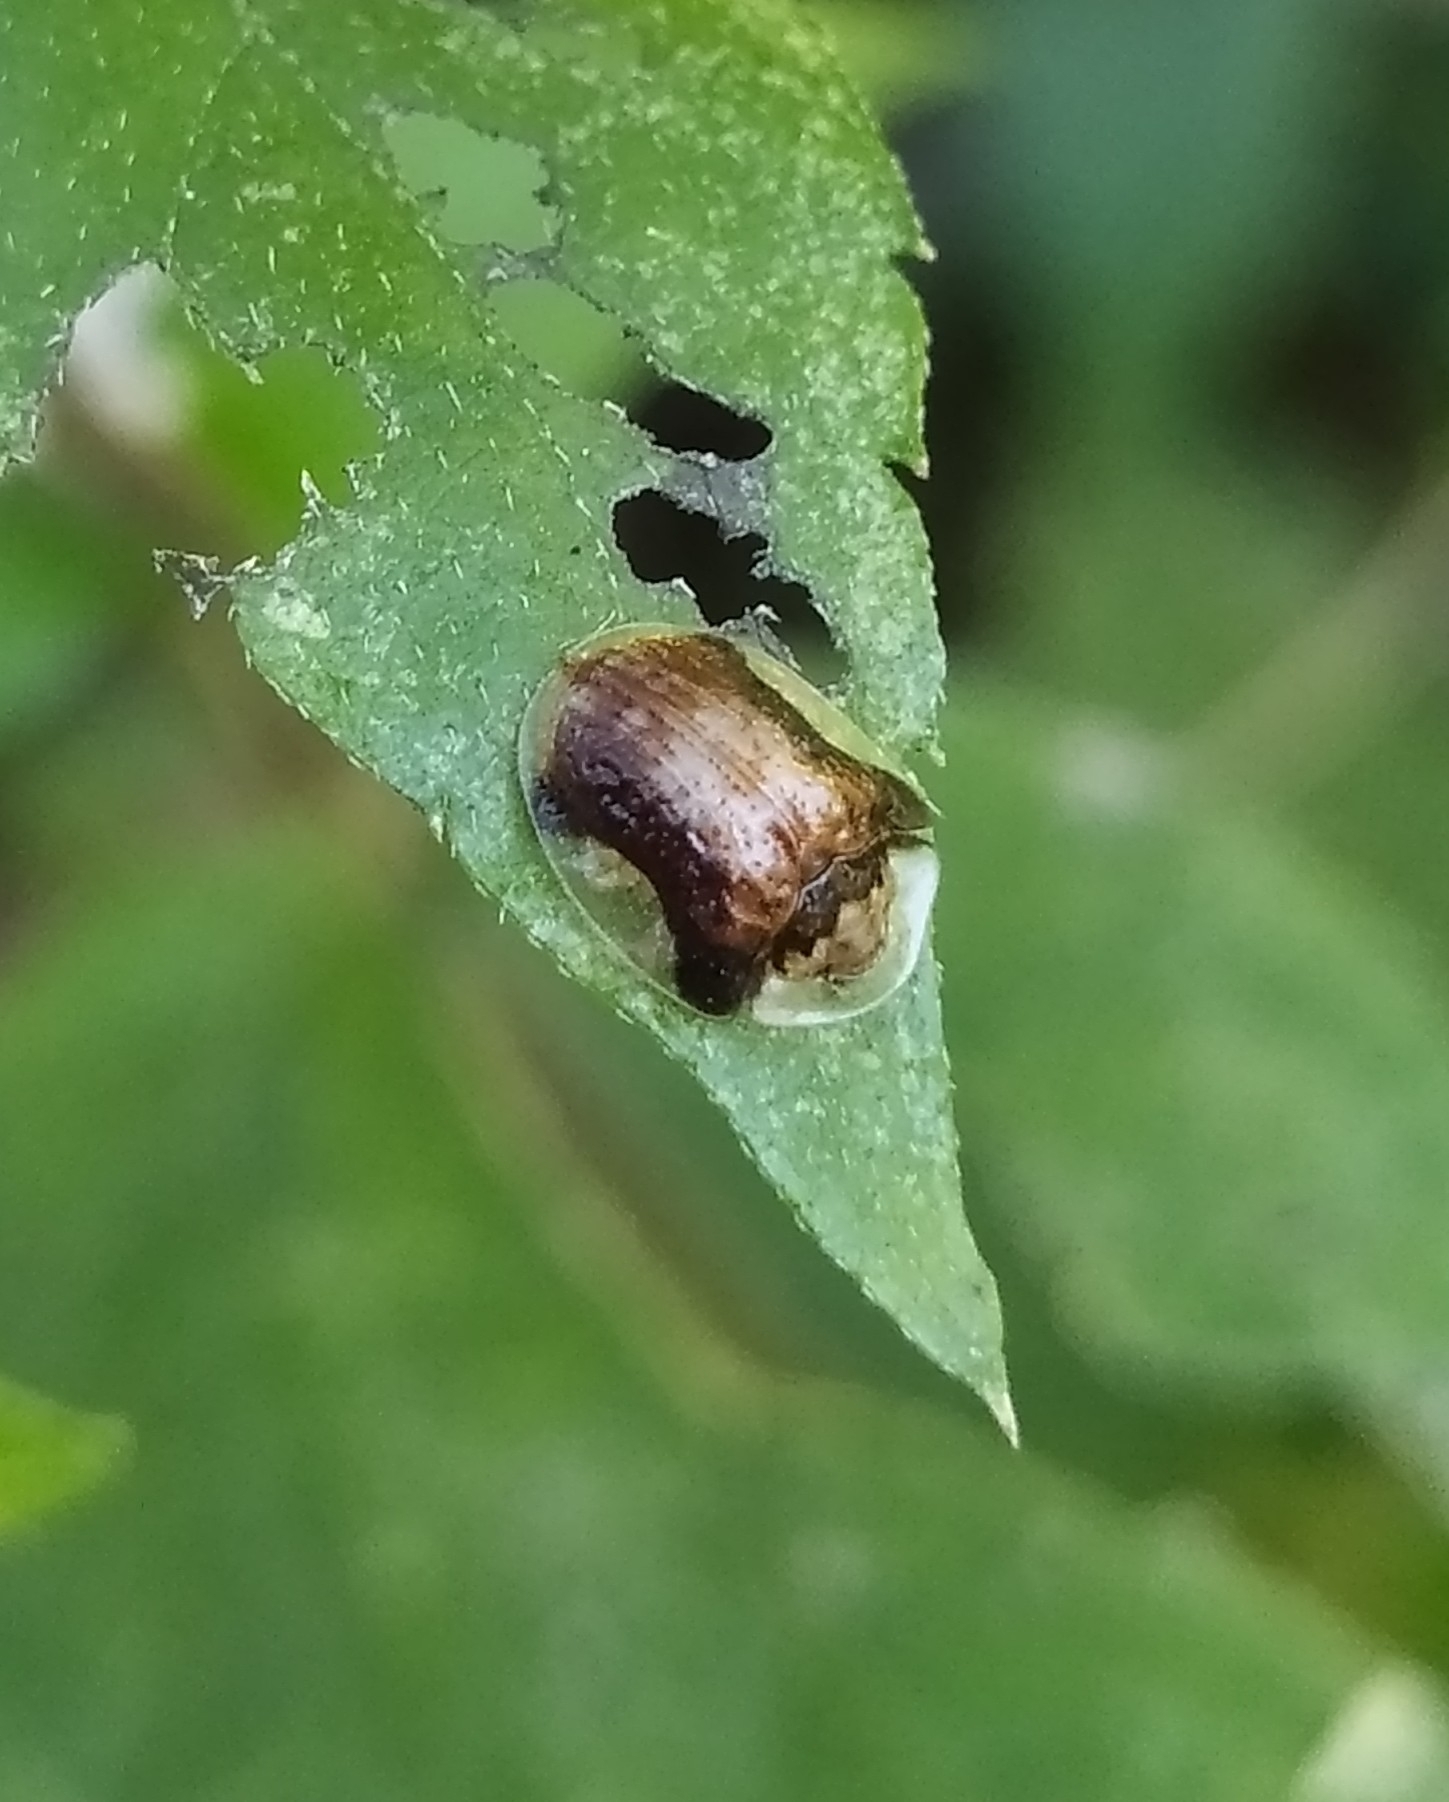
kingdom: Animalia
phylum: Arthropoda
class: Insecta
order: Coleoptera
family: Chrysomelidae
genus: Cteisella
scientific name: Cteisella ramosa
